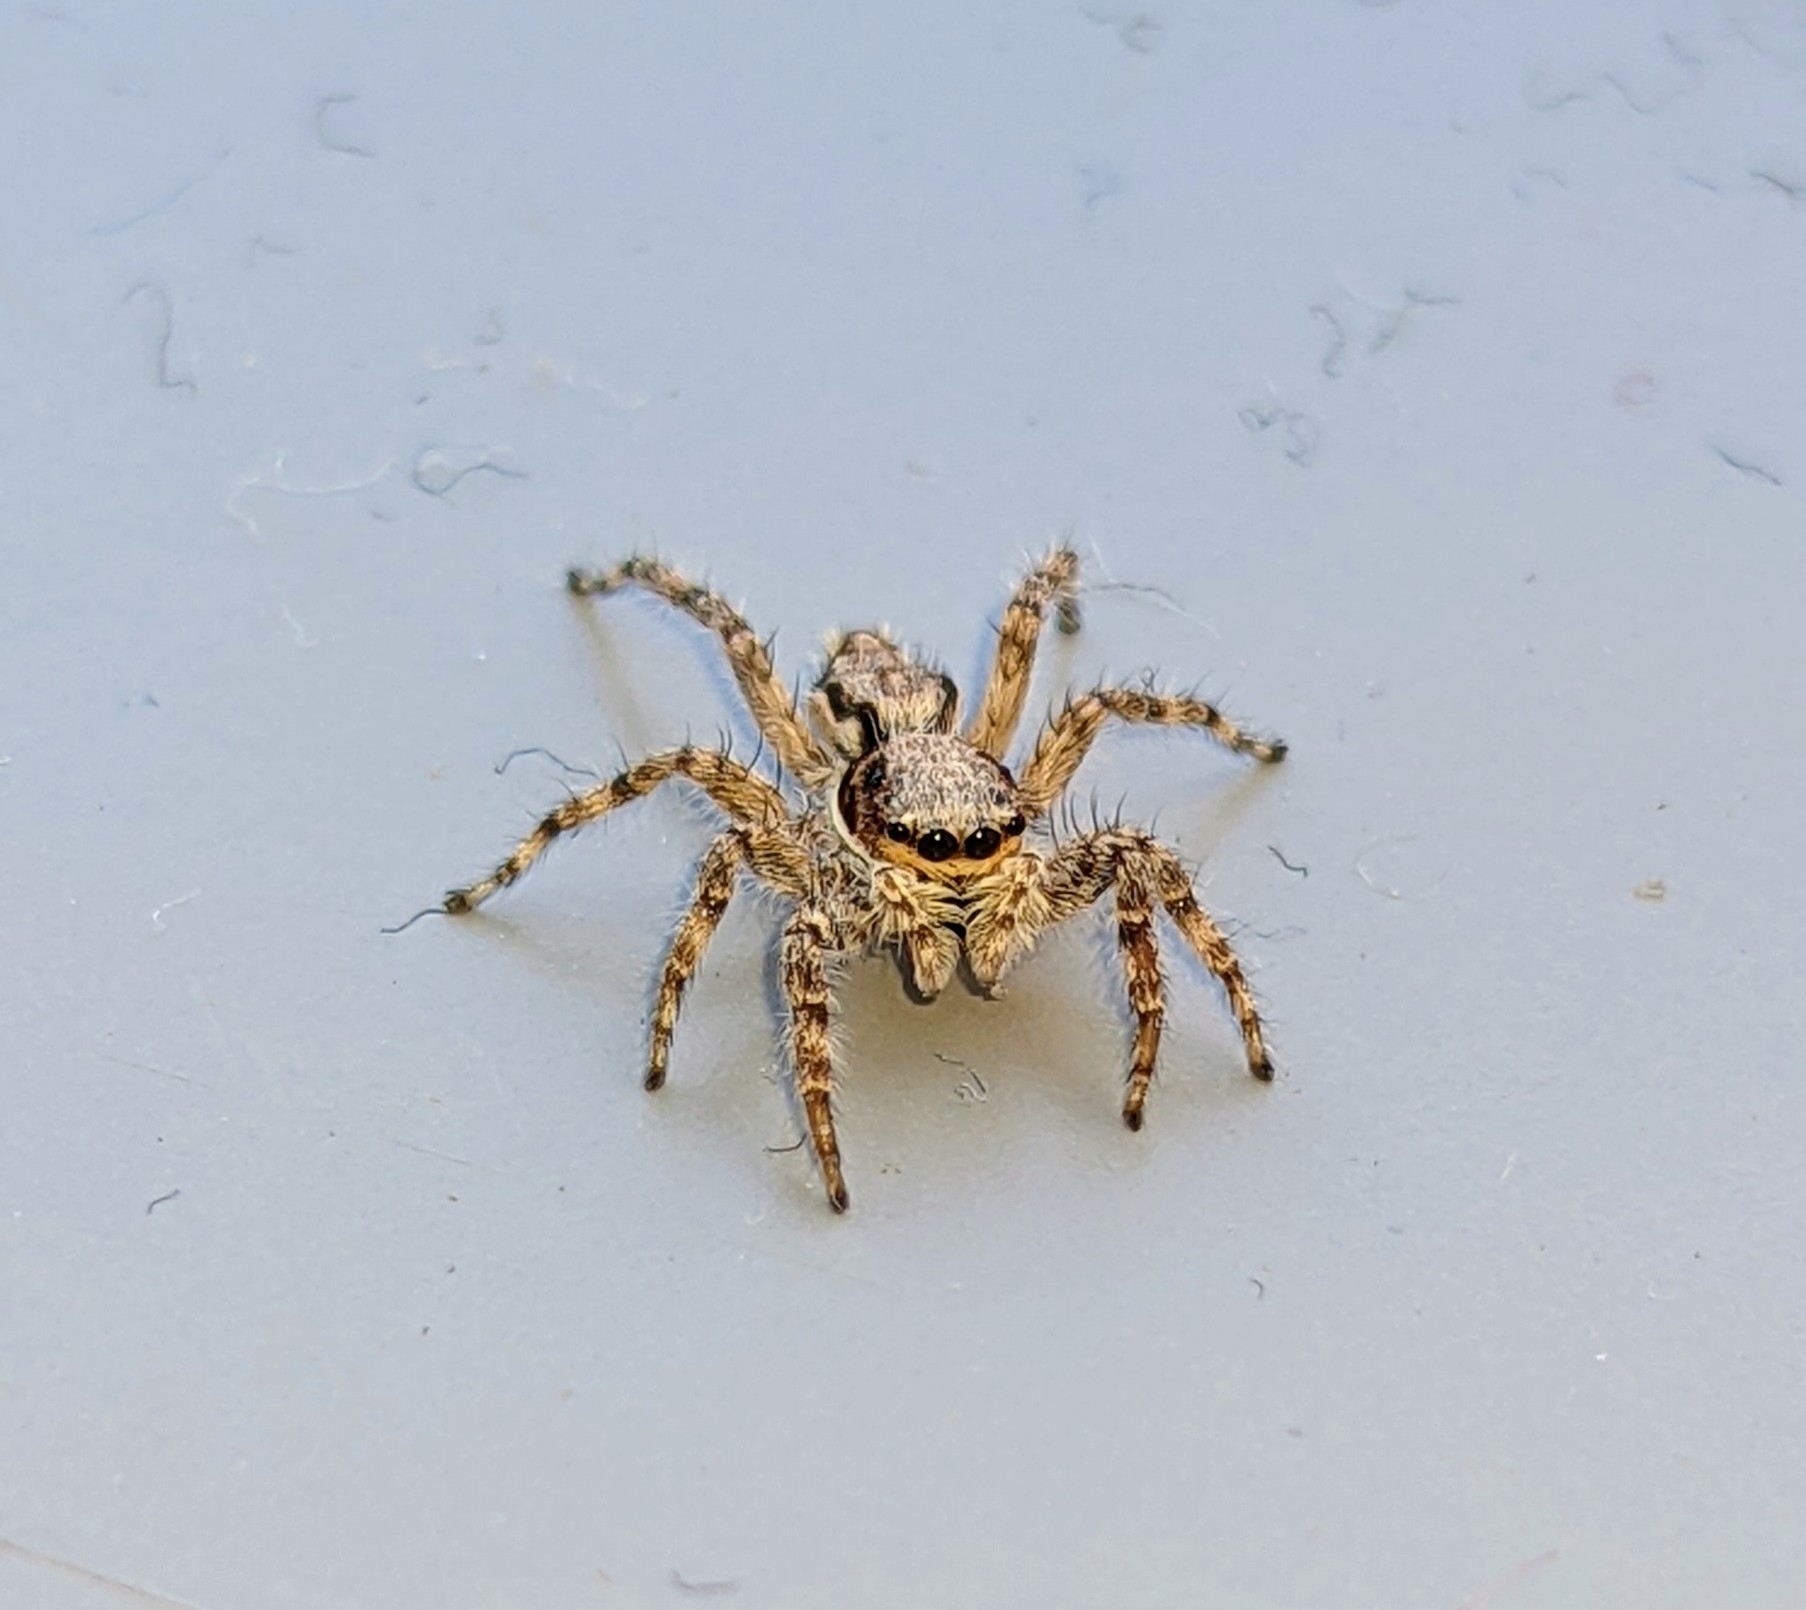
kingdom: Animalia
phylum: Arthropoda
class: Arachnida
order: Araneae
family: Salticidae
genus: Menemerus
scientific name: Menemerus bivittatus
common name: Gray wall jumper
